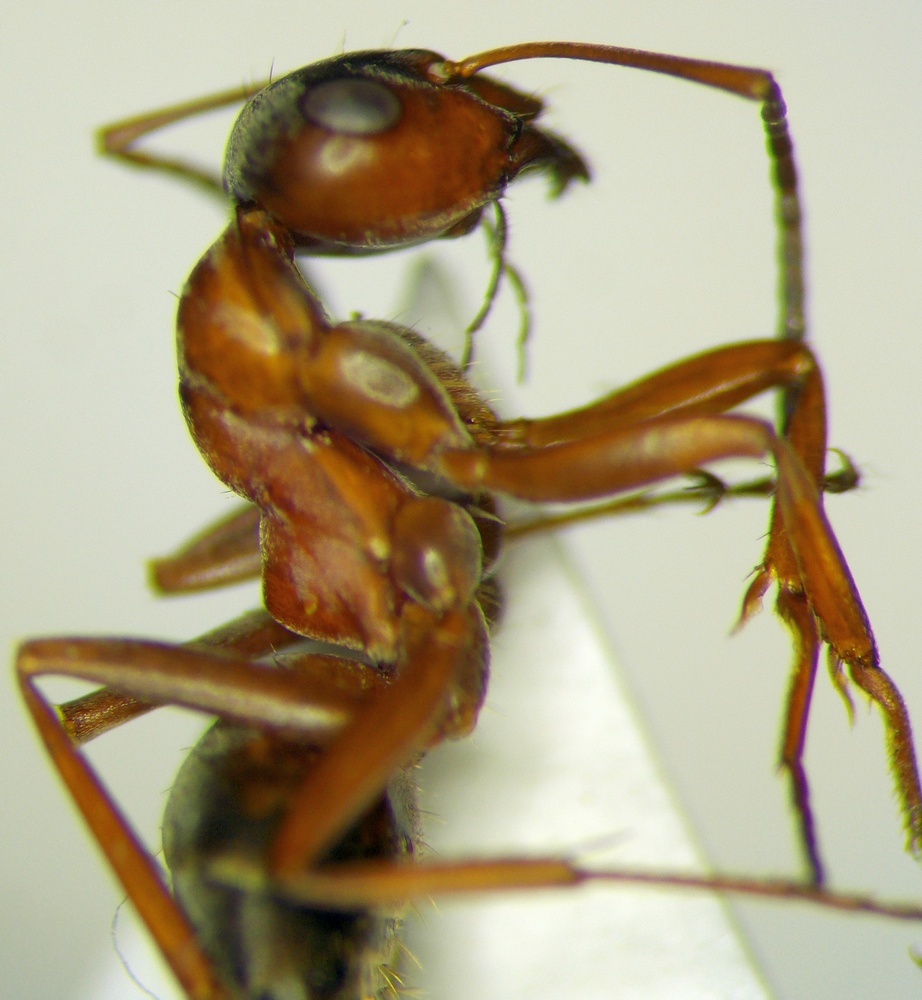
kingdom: Animalia
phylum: Arthropoda
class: Insecta
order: Hymenoptera
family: Formicidae
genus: Formica
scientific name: Formica cunicularia
